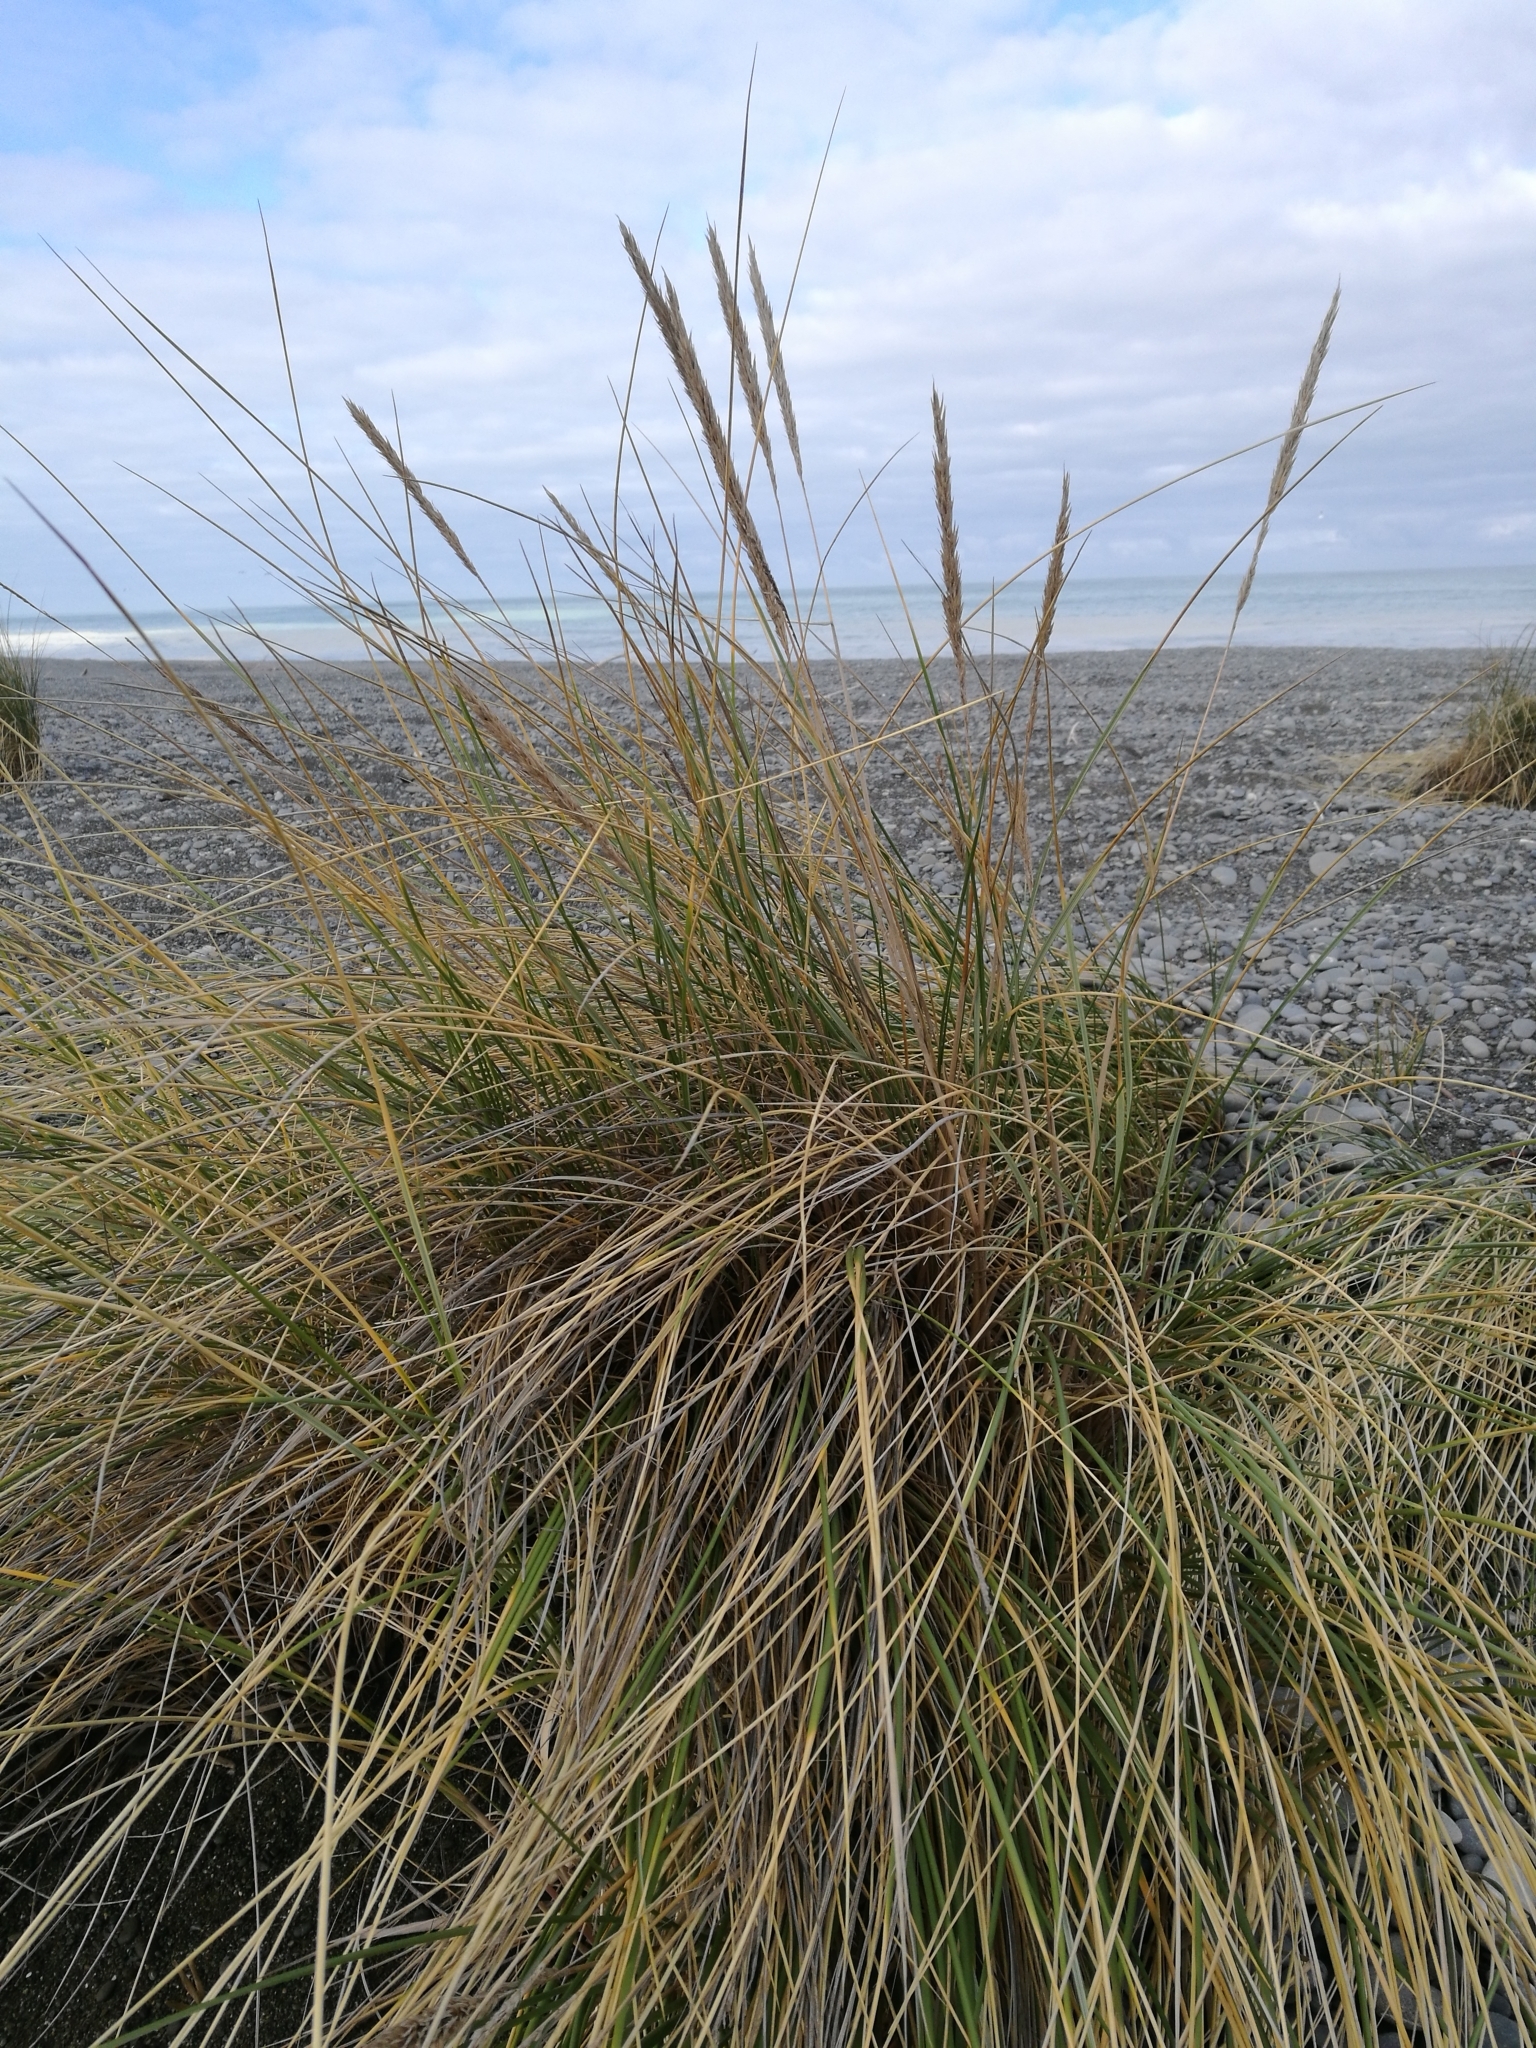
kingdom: Plantae
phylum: Tracheophyta
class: Liliopsida
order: Poales
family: Poaceae
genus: Calamagrostis
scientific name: Calamagrostis arenaria
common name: European beachgrass
